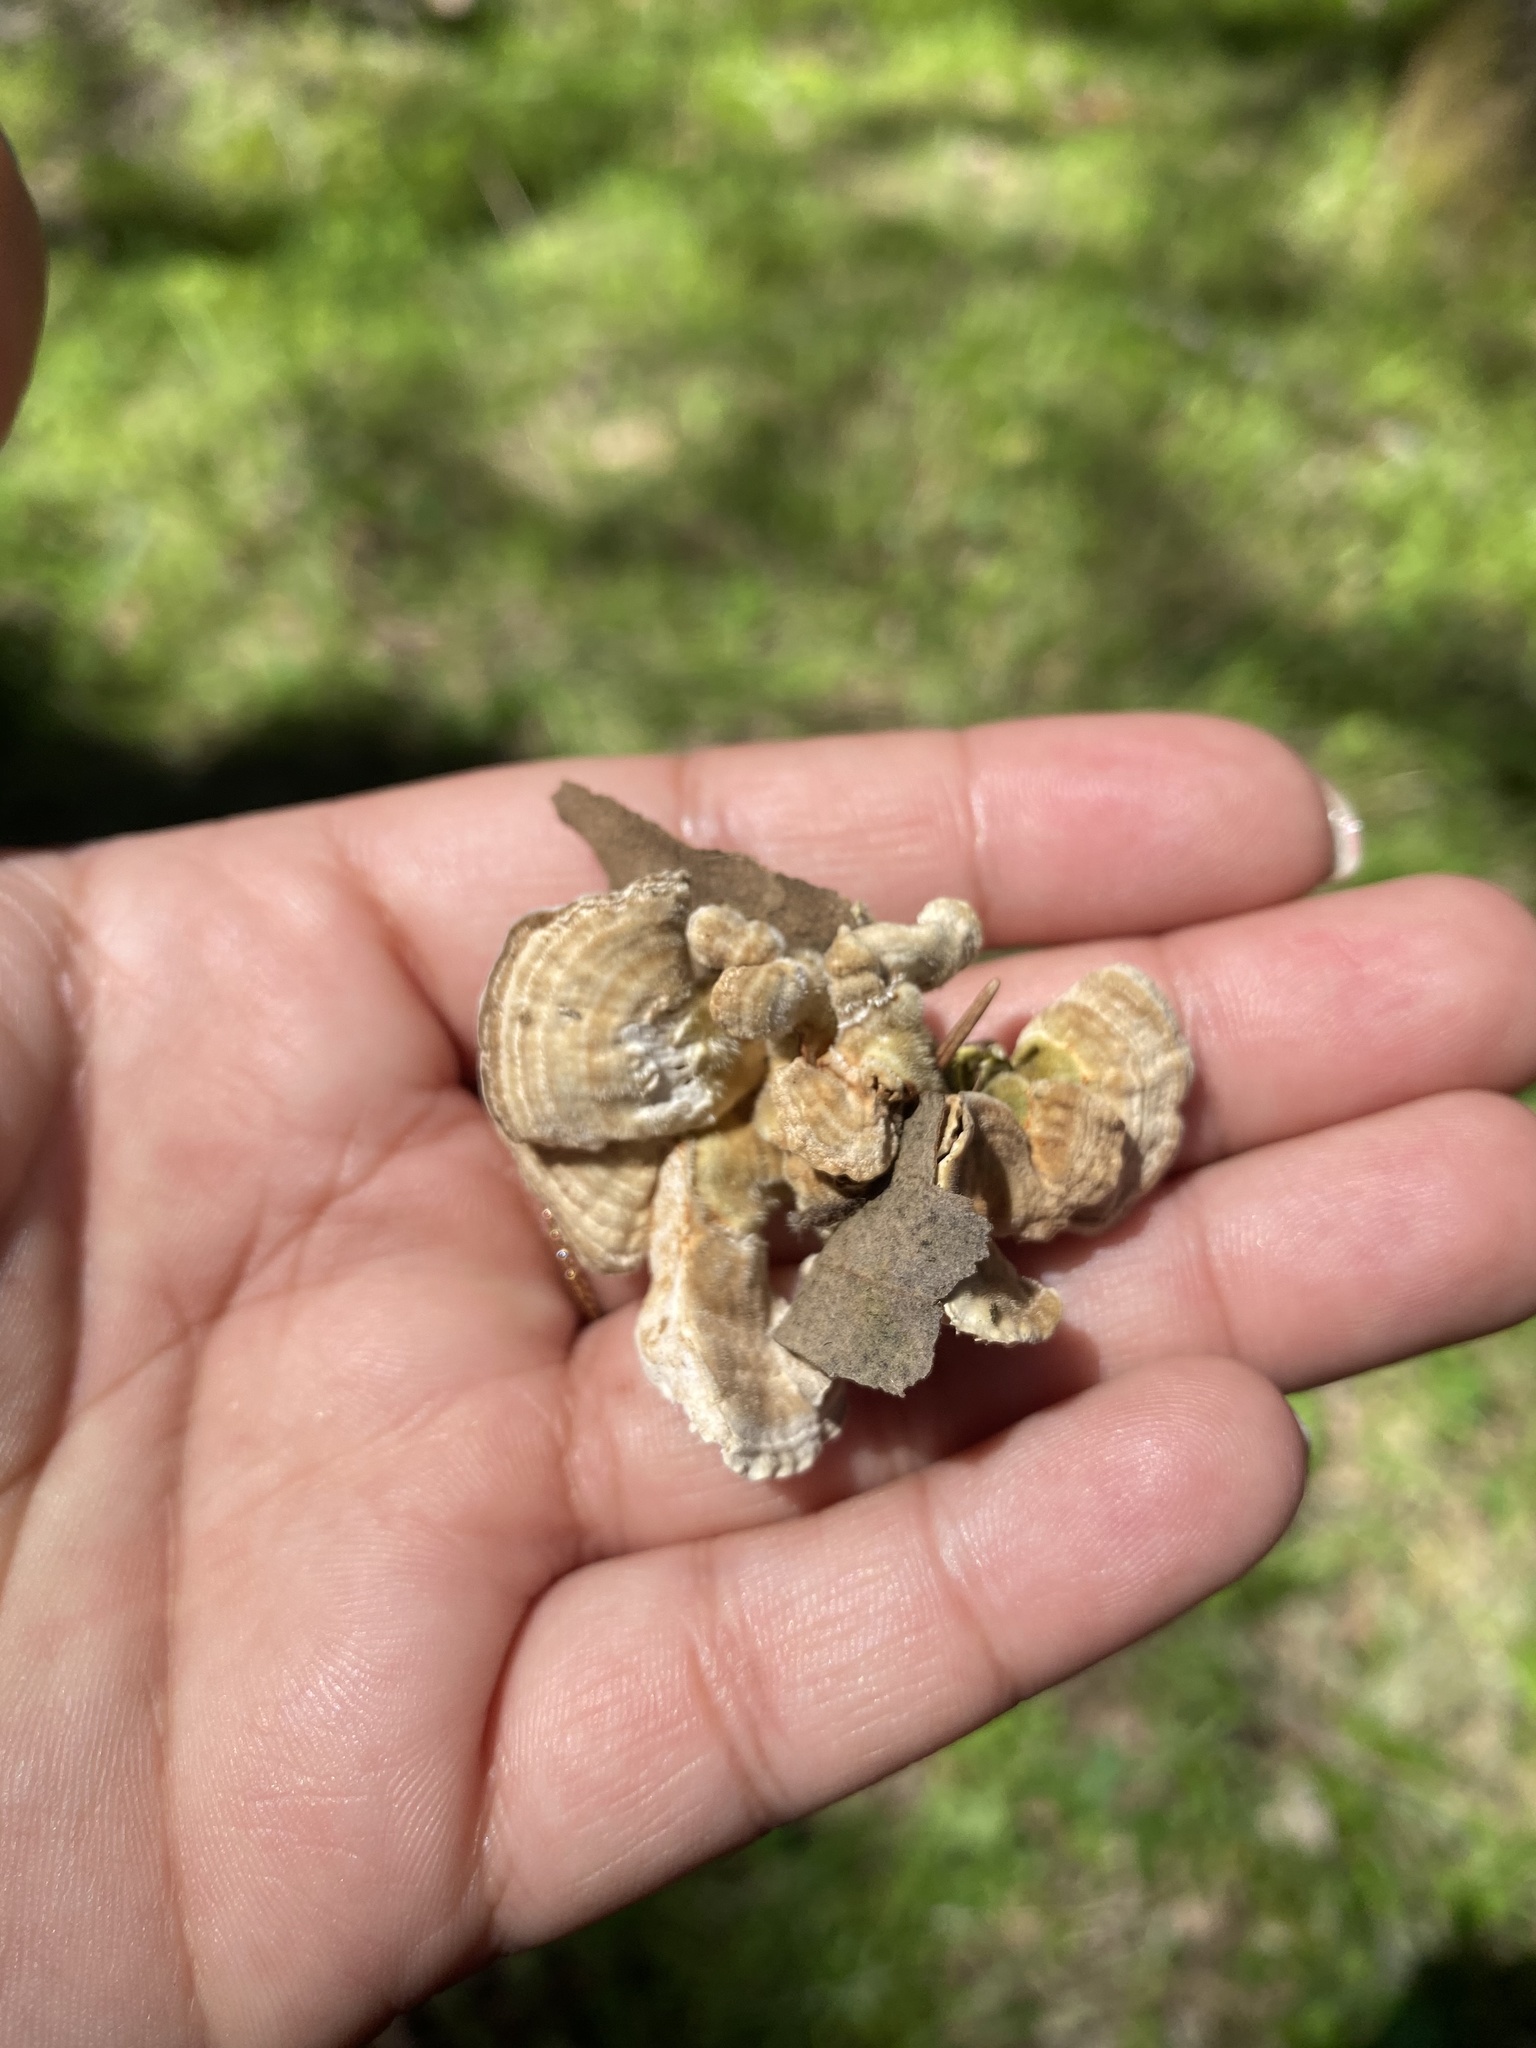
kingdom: Fungi
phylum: Basidiomycota
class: Agaricomycetes
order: Polyporales
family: Polyporaceae
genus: Lenzites
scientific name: Lenzites betulinus
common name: Birch mazegill
